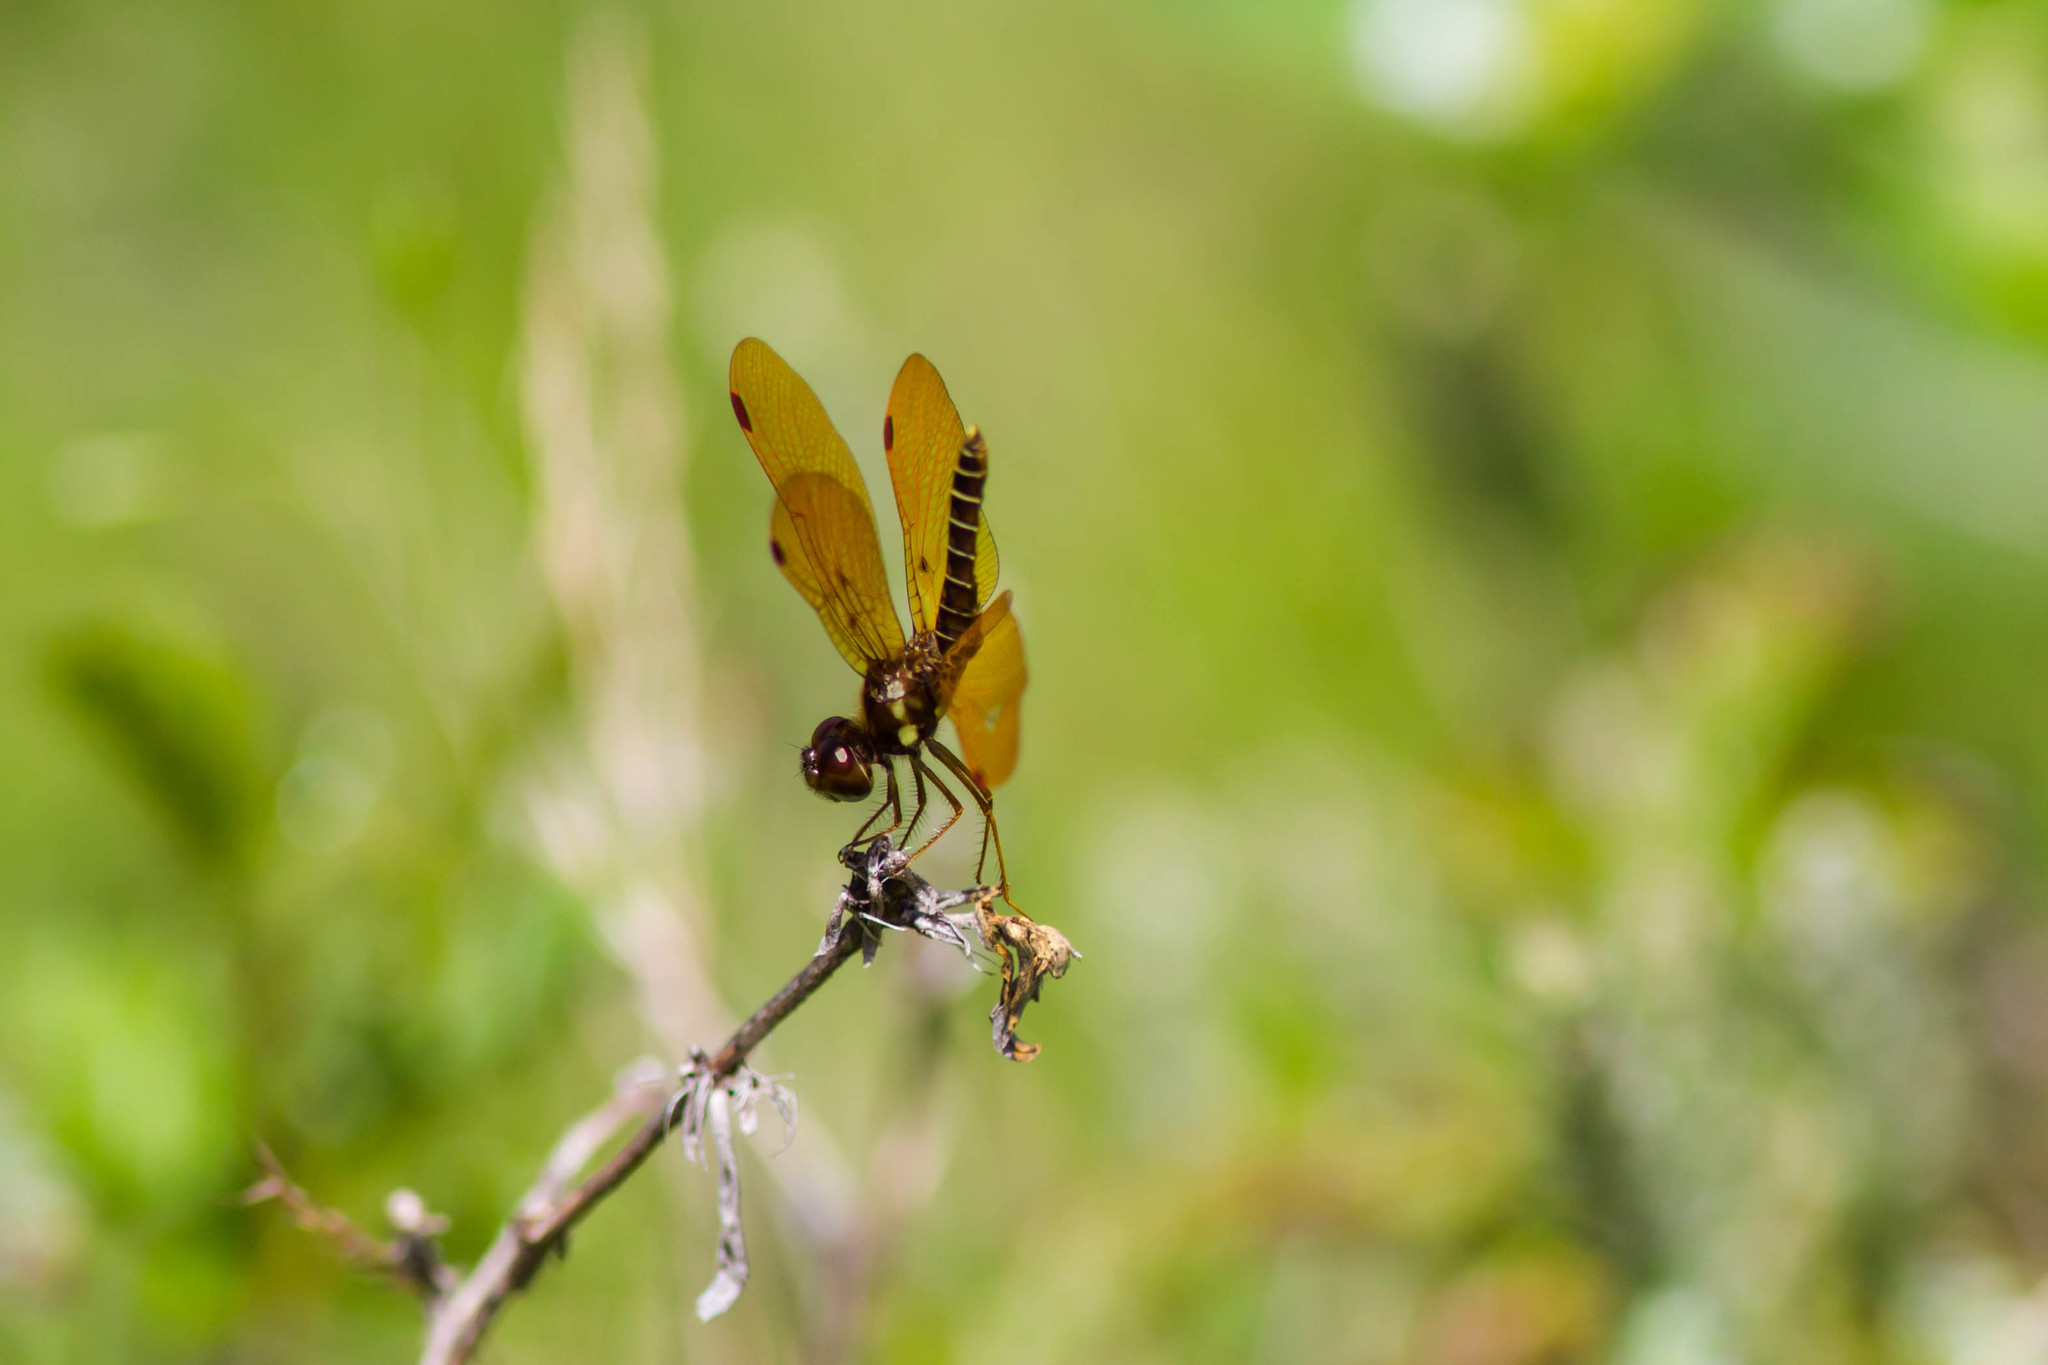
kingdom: Animalia
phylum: Arthropoda
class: Insecta
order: Odonata
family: Libellulidae
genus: Perithemis
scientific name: Perithemis tenera
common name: Eastern amberwing
